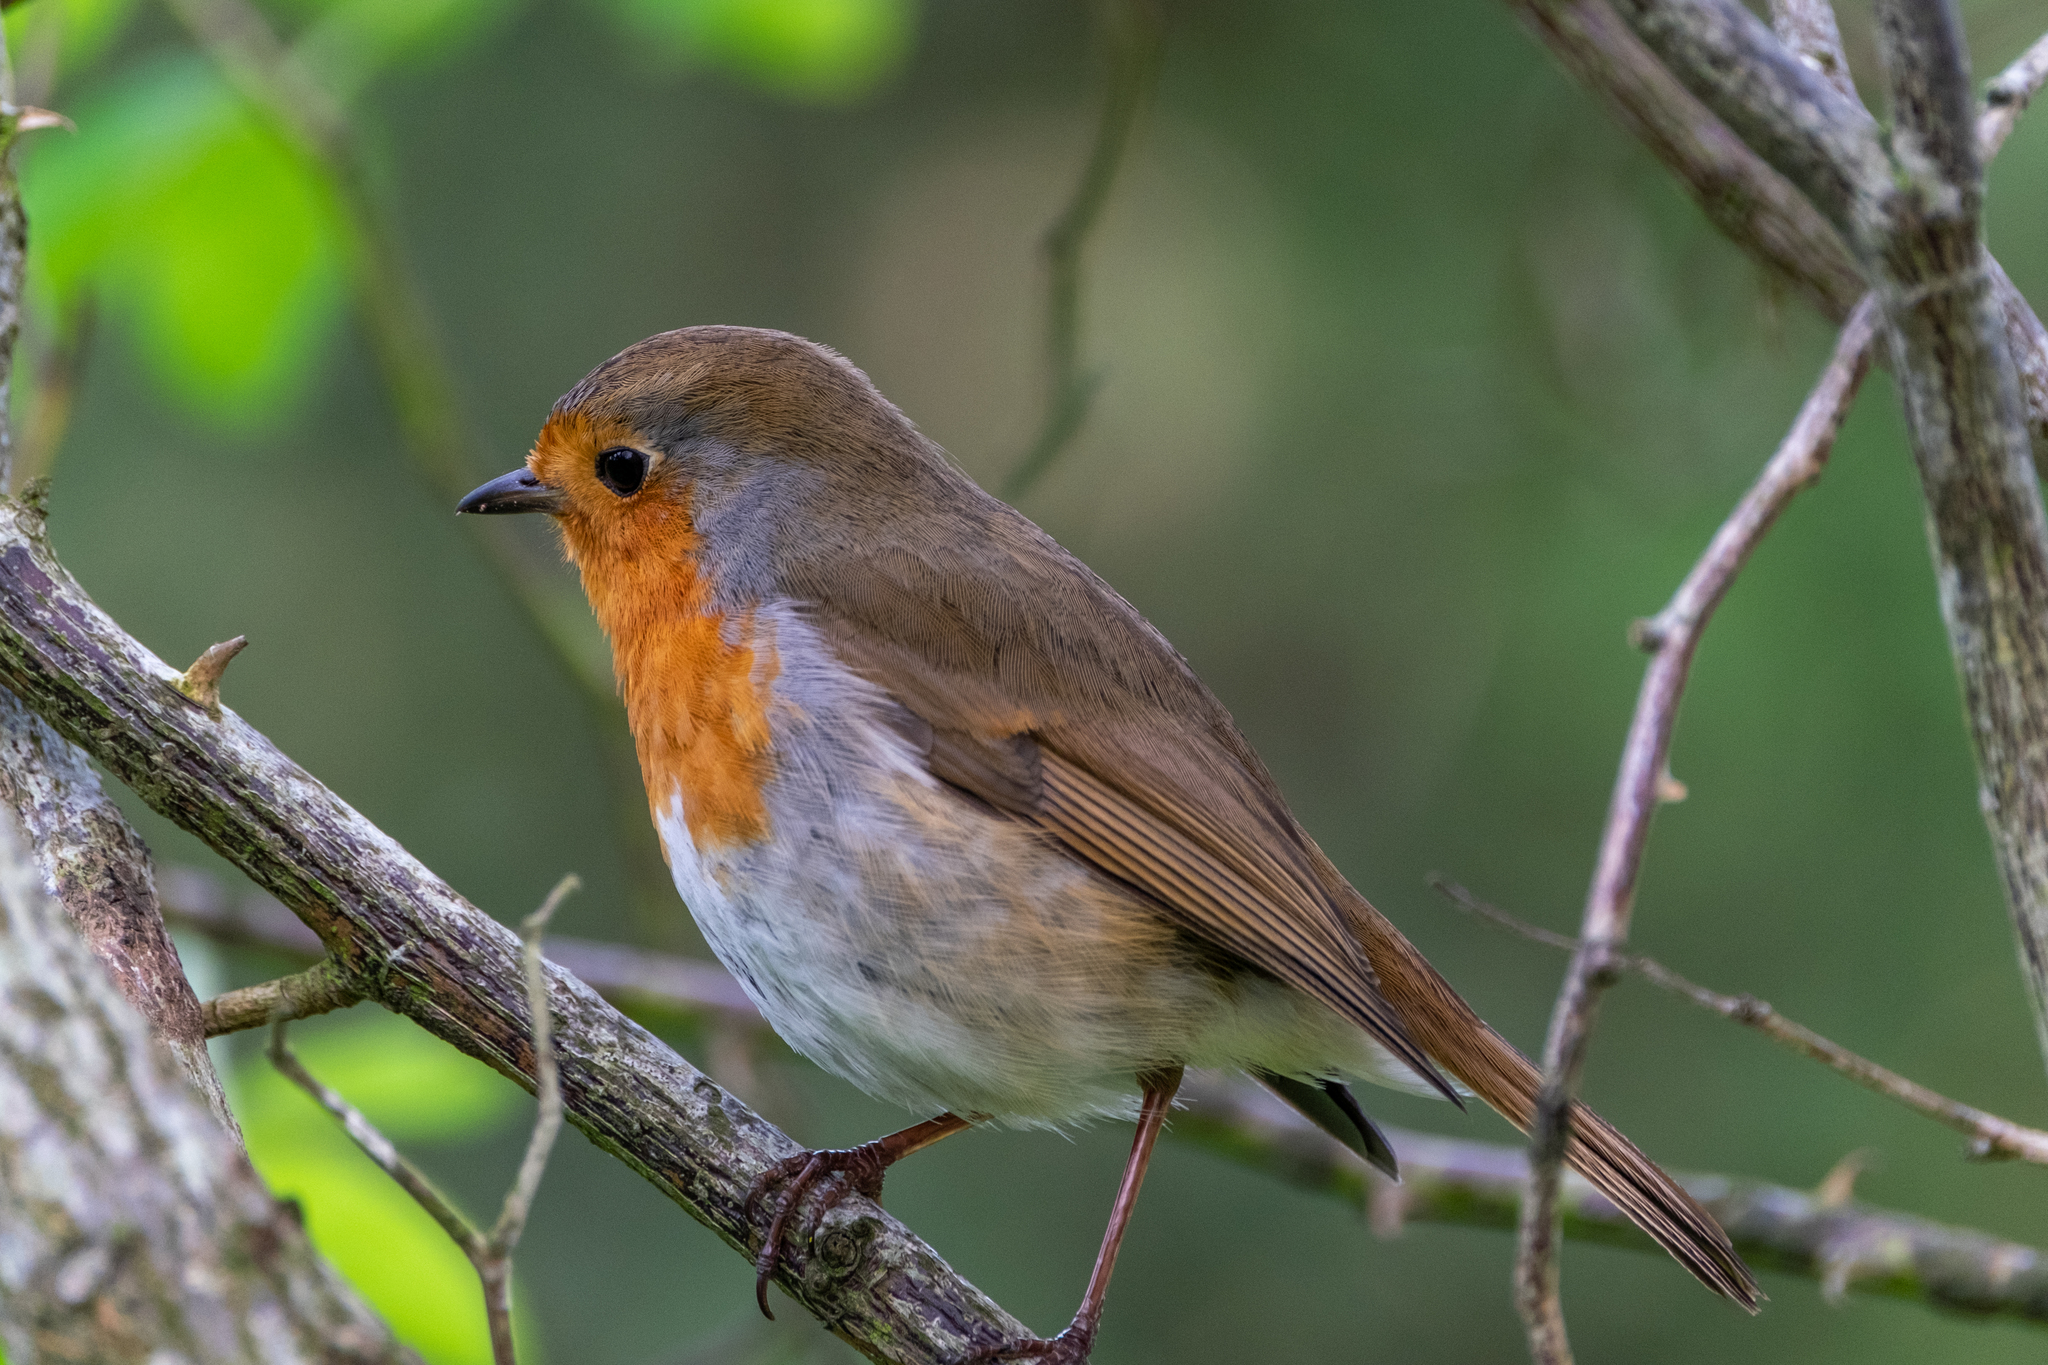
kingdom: Animalia
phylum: Chordata
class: Aves
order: Passeriformes
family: Muscicapidae
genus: Erithacus
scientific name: Erithacus rubecula
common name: European robin
